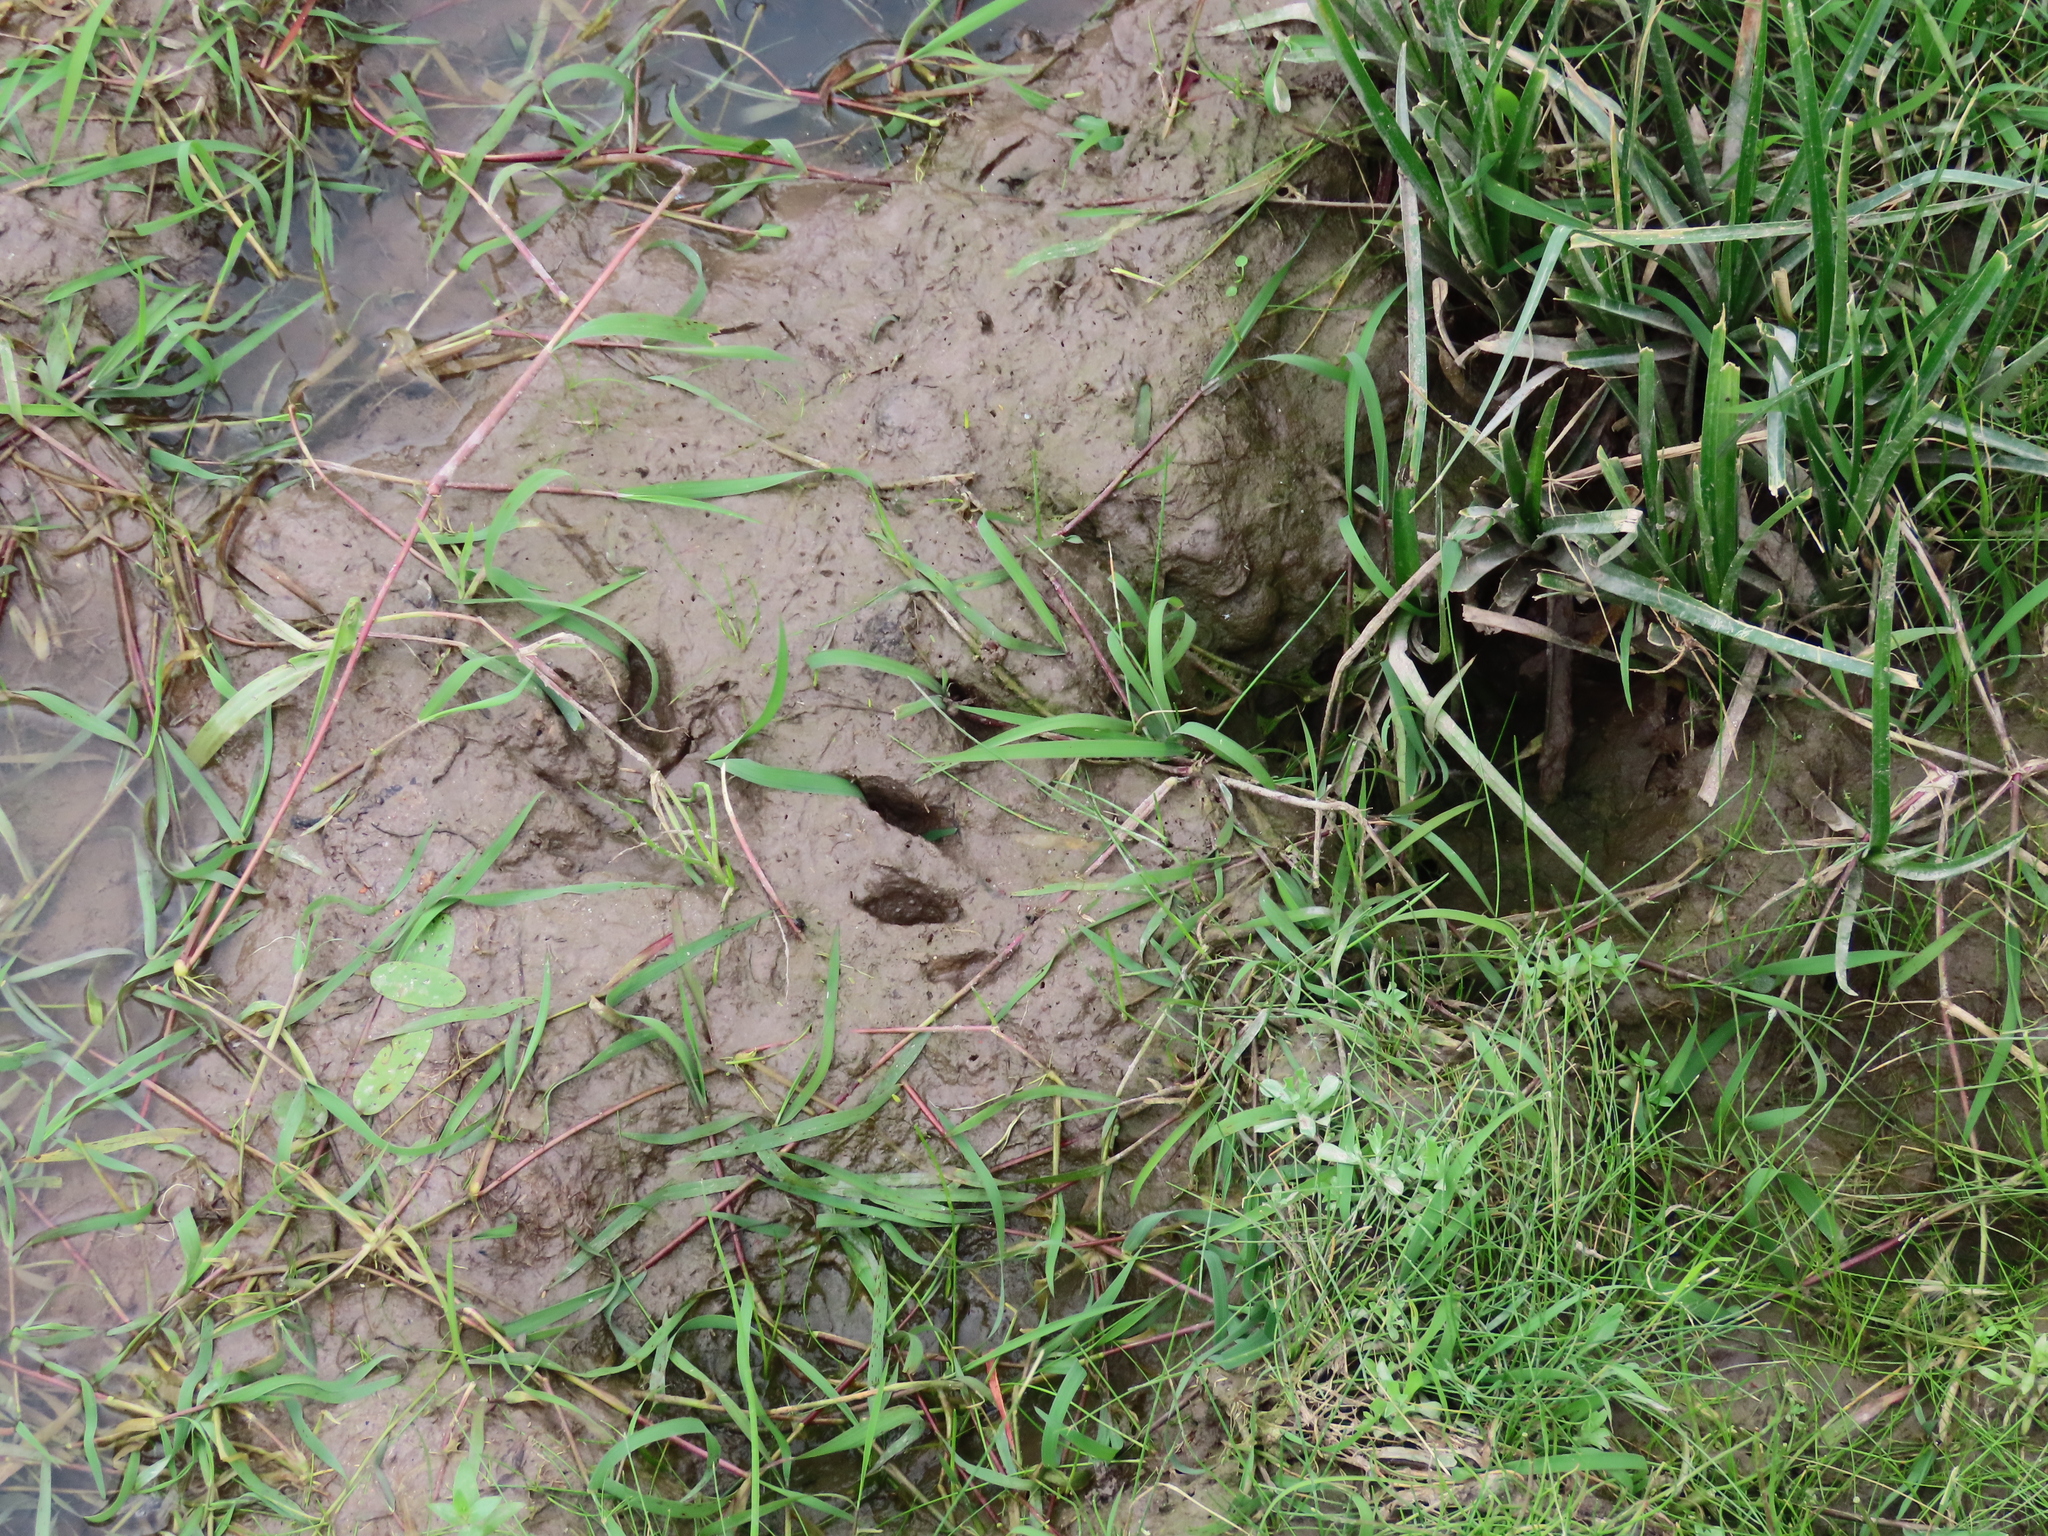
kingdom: Animalia
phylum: Chordata
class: Mammalia
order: Carnivora
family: Procyonidae
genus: Procyon
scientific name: Procyon cancrivorus
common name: Crab-eating raccoon
